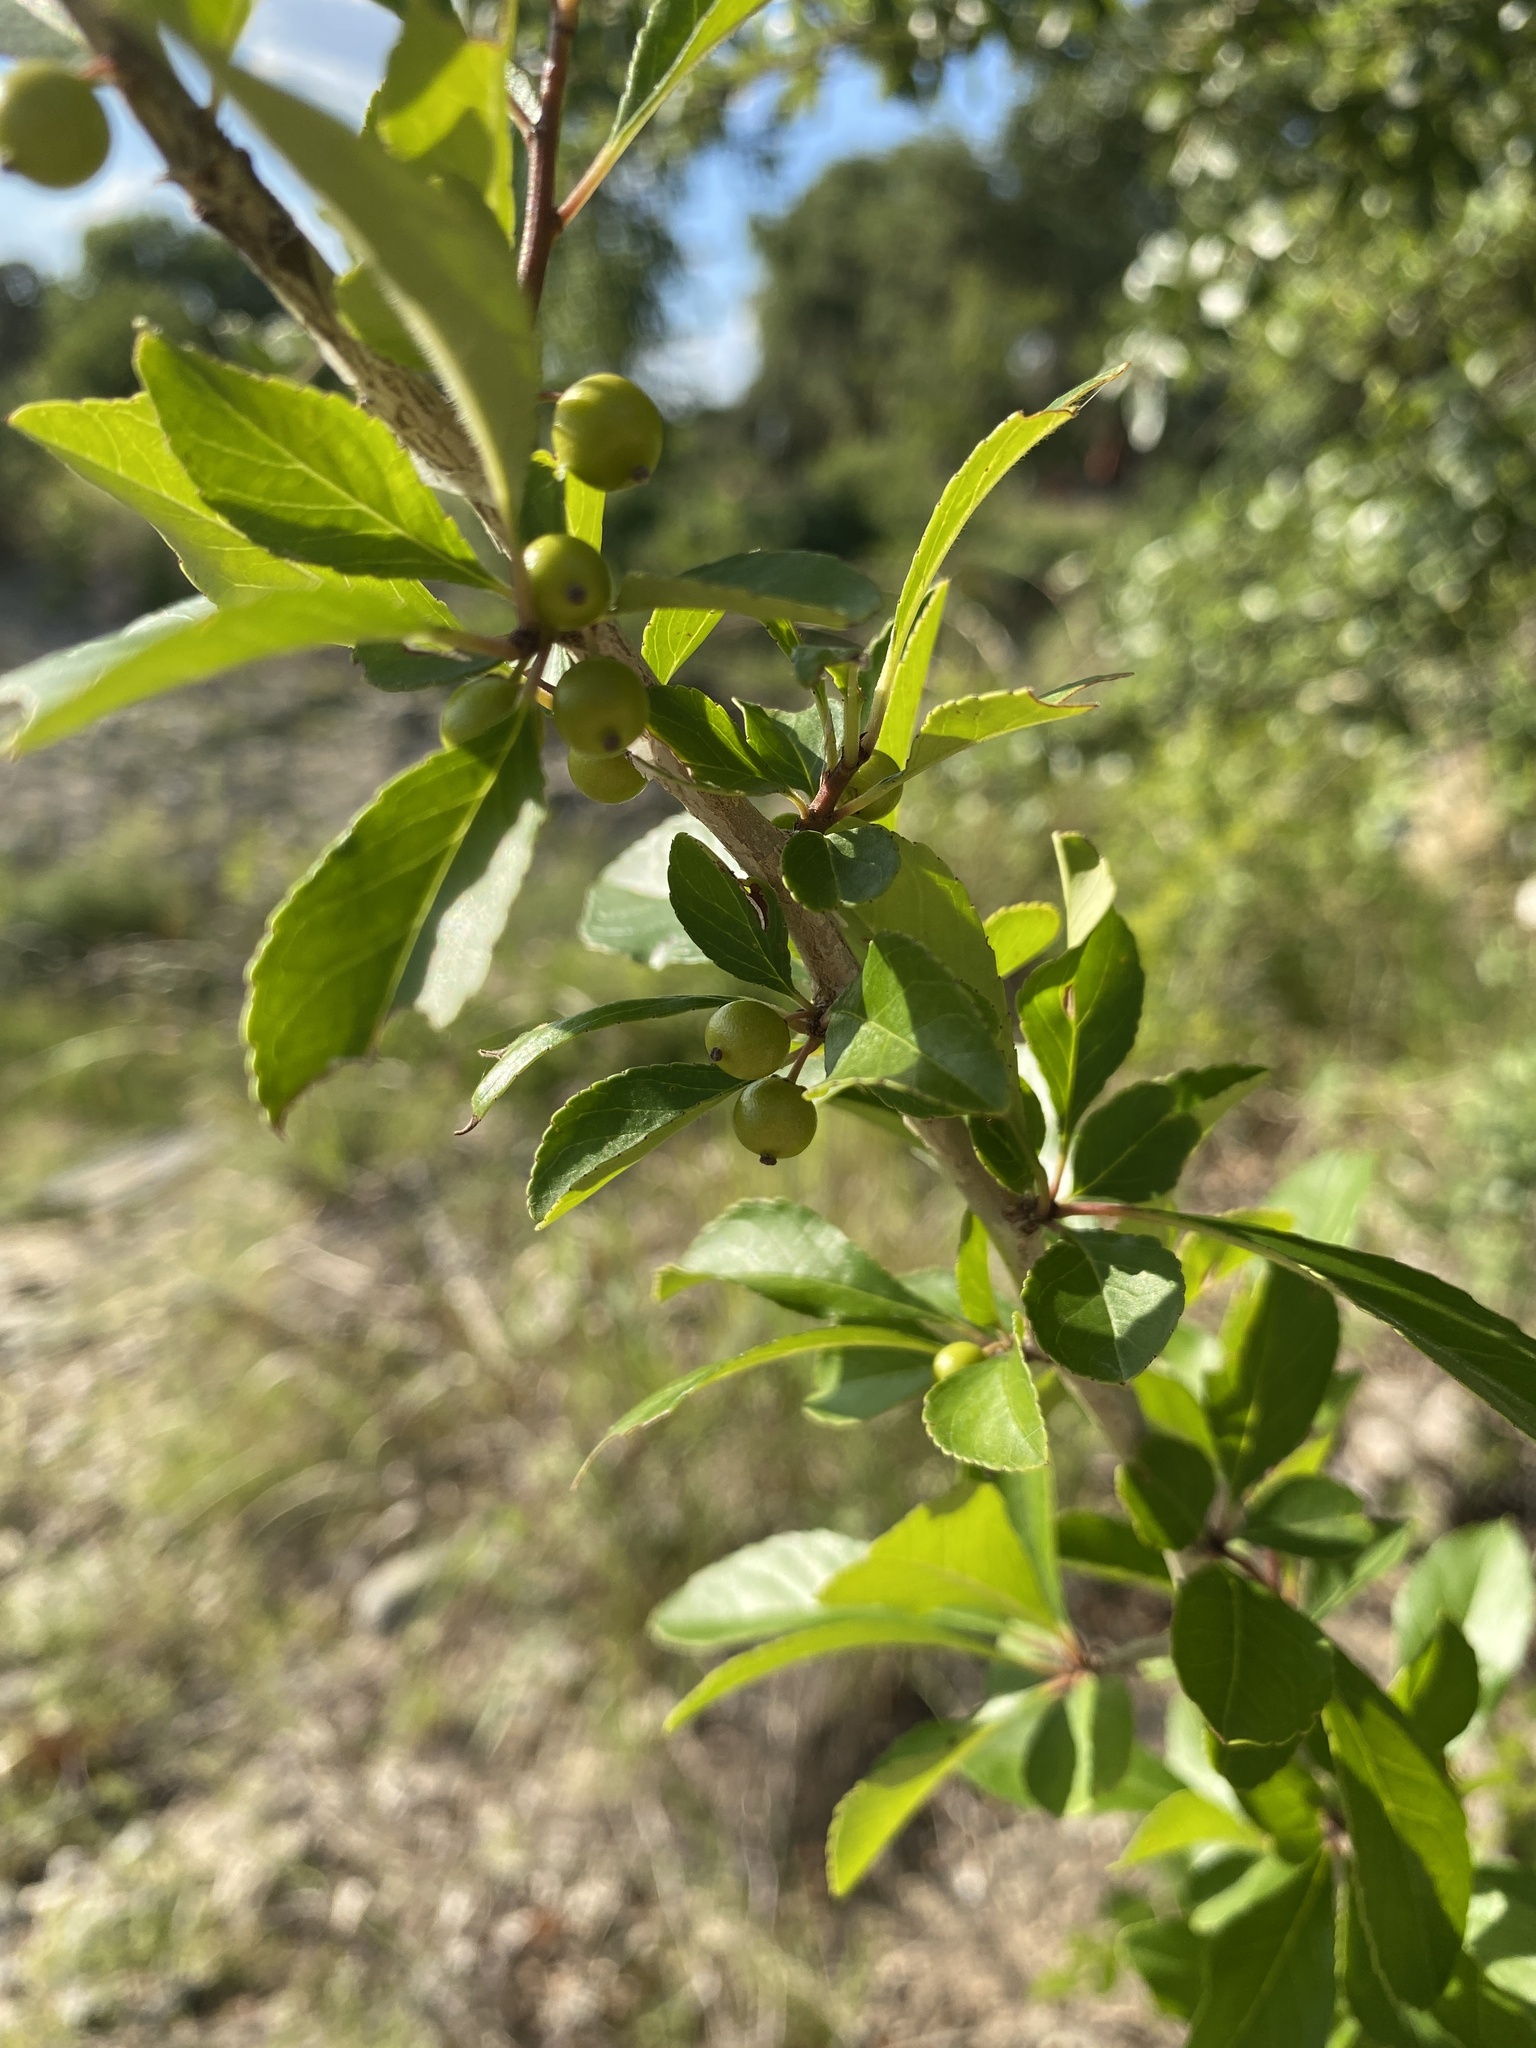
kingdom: Plantae
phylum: Tracheophyta
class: Magnoliopsida
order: Aquifoliales
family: Aquifoliaceae
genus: Ilex
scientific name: Ilex decidua
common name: Possum-haw
